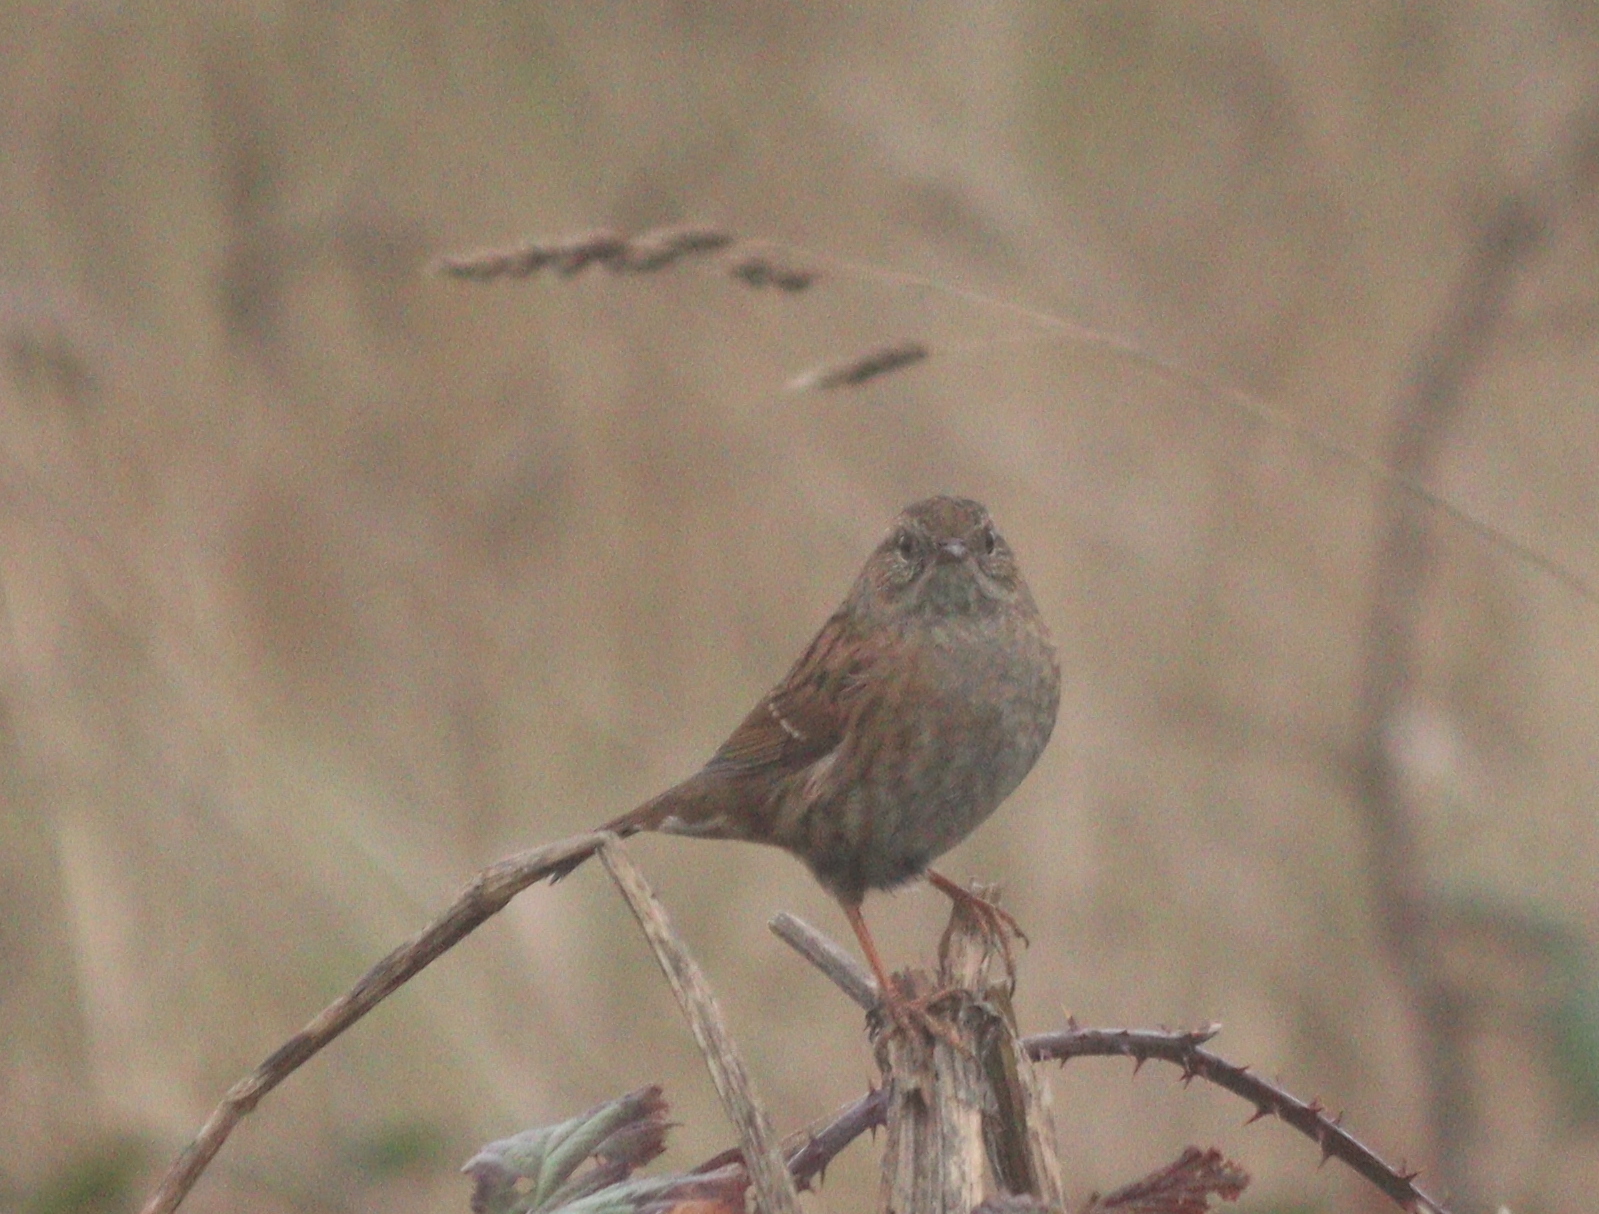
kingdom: Animalia
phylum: Chordata
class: Aves
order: Passeriformes
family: Prunellidae
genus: Prunella
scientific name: Prunella modularis
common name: Dunnock
